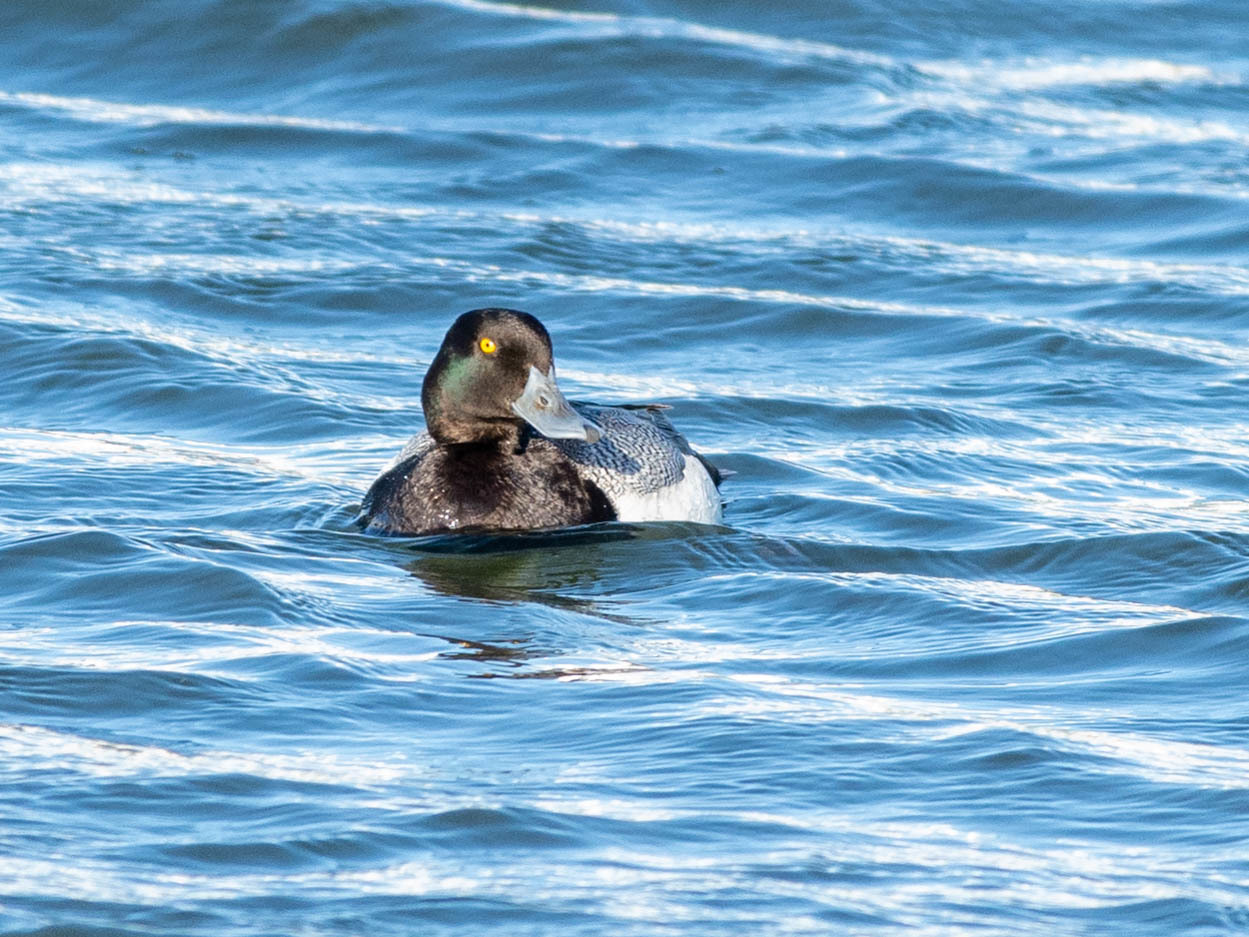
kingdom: Animalia
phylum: Chordata
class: Aves
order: Anseriformes
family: Anatidae
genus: Aythya
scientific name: Aythya affinis
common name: Lesser scaup
